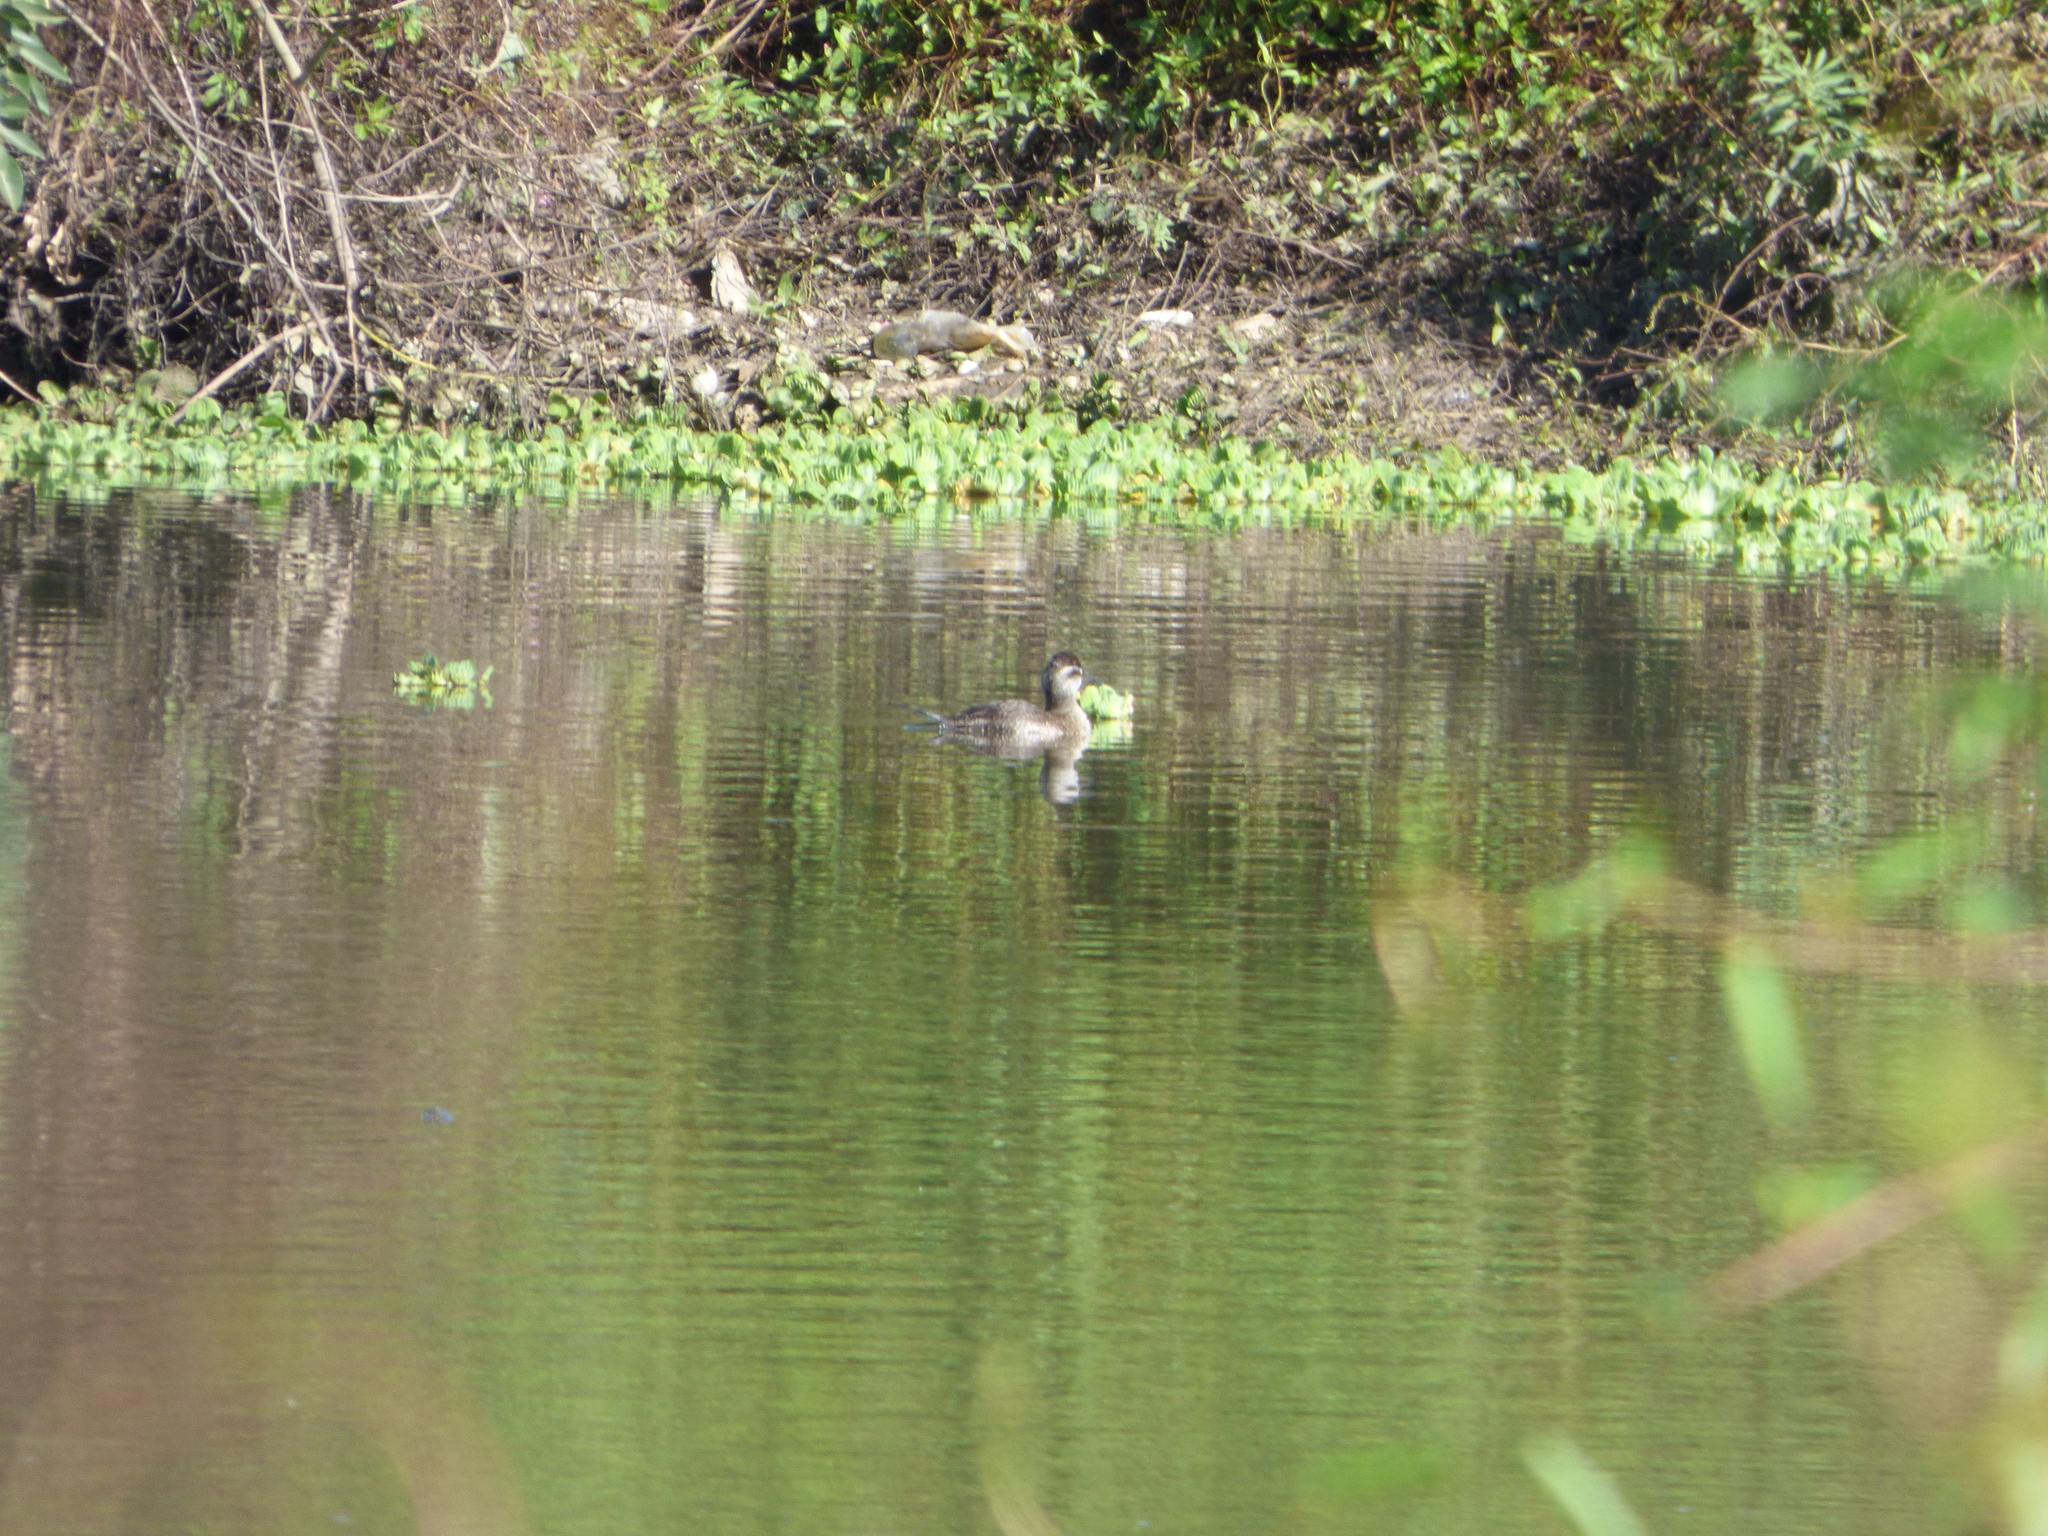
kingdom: Animalia
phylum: Chordata
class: Aves
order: Anseriformes
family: Anatidae
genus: Oxyura
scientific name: Oxyura vittata
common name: Lake duck
